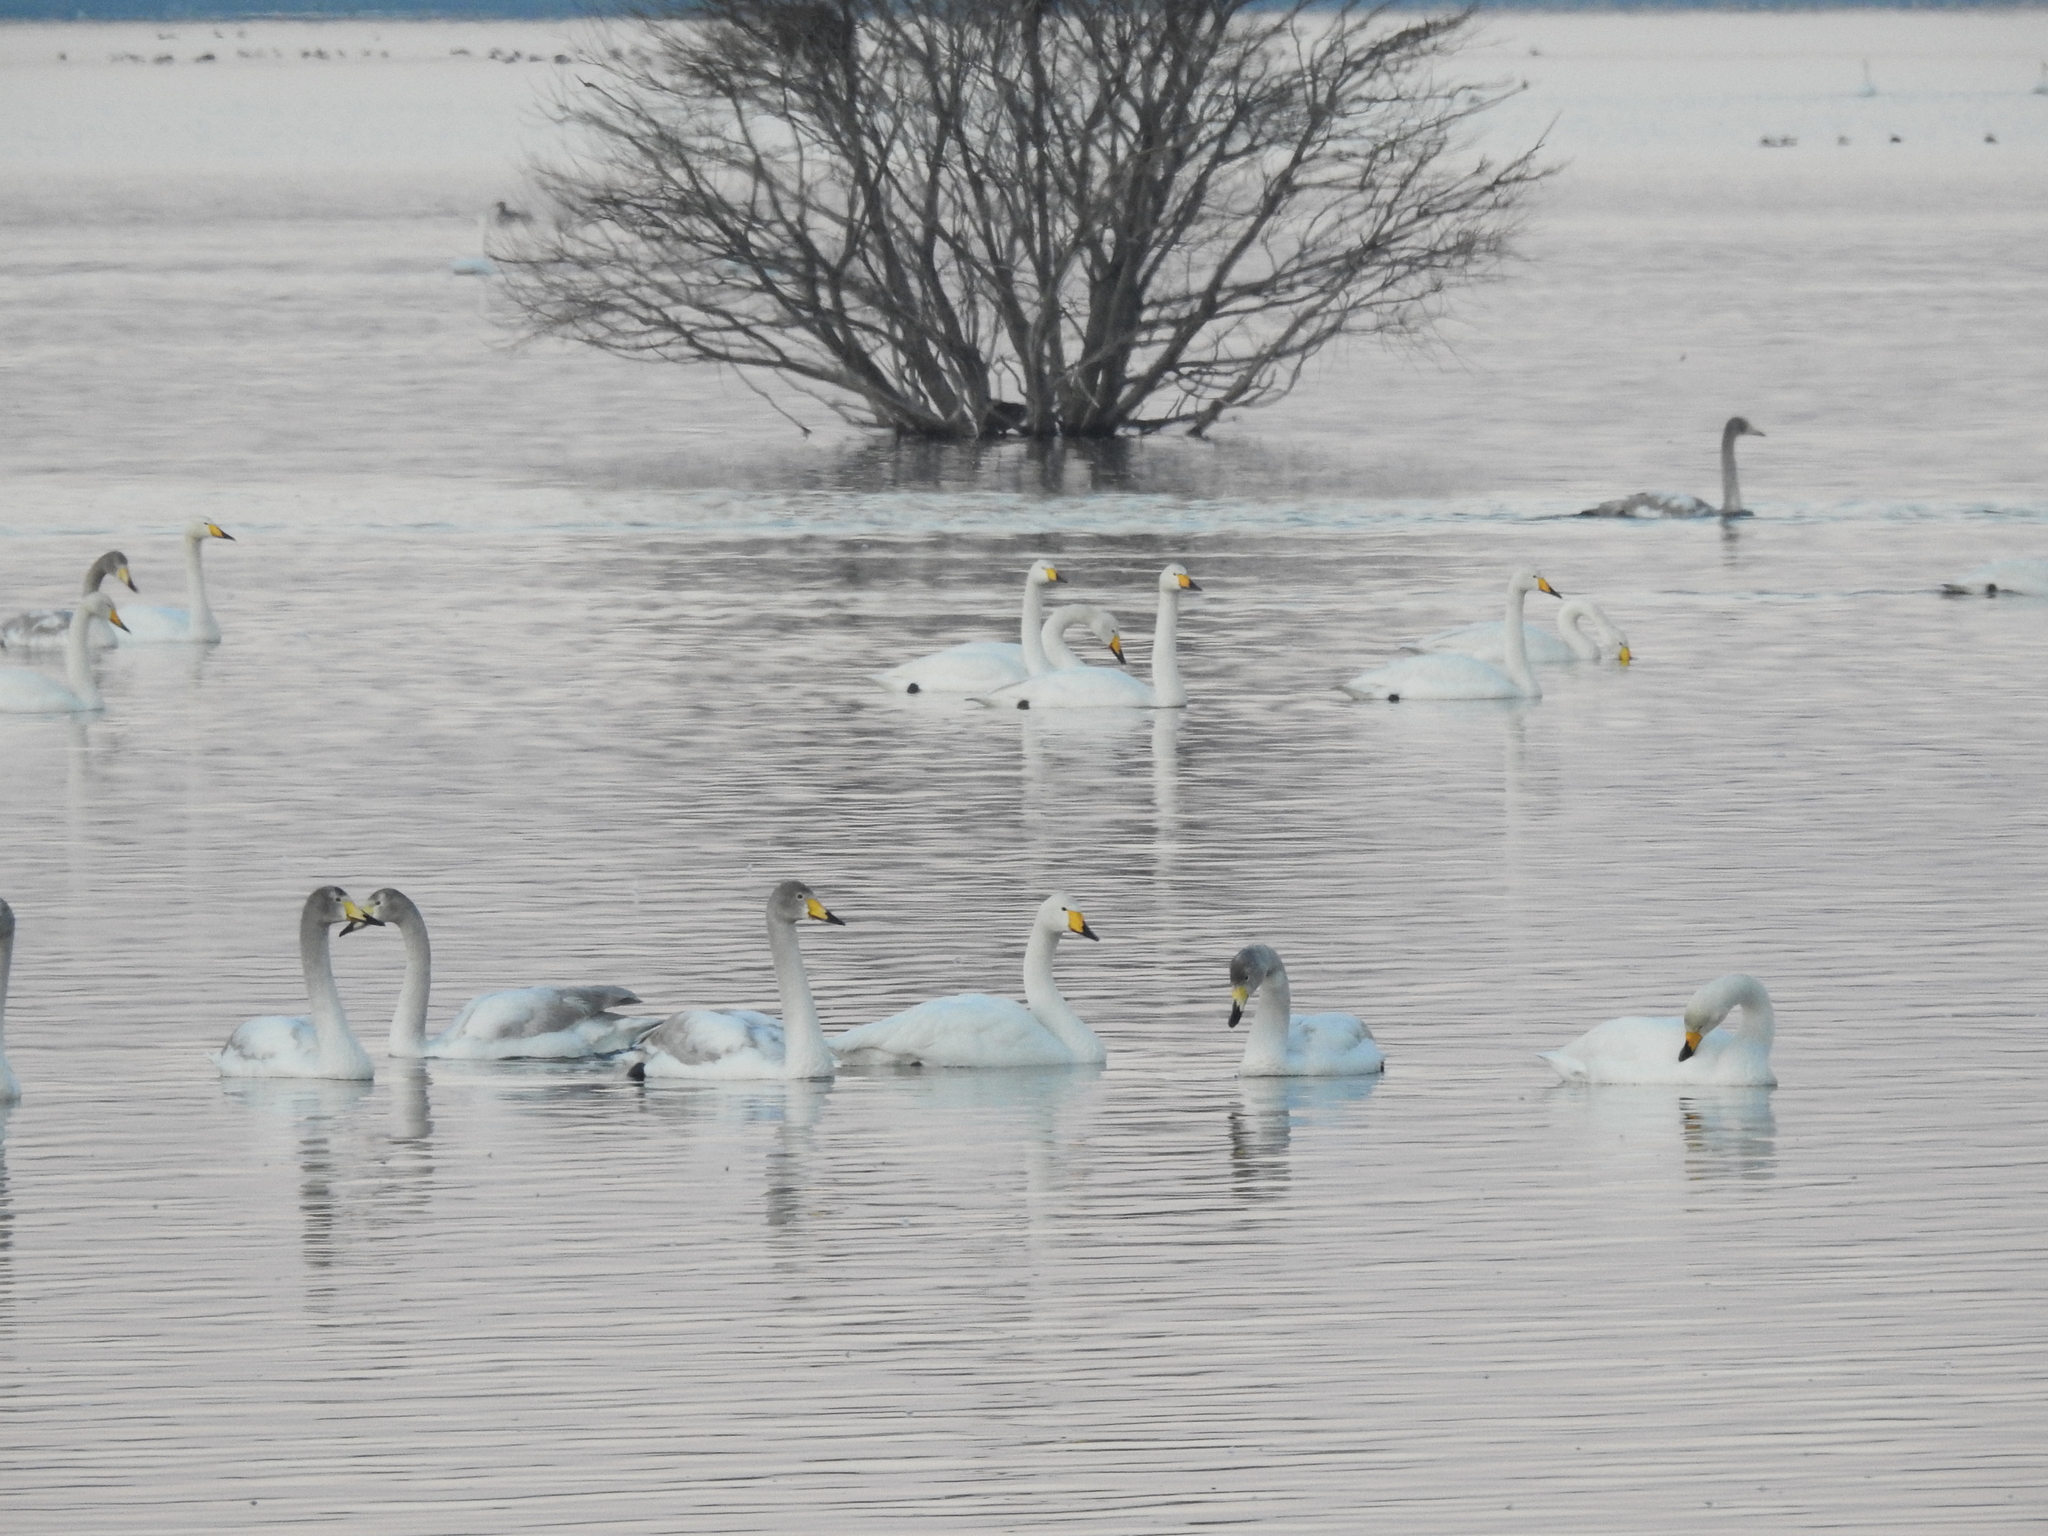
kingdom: Animalia
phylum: Chordata
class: Aves
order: Anseriformes
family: Anatidae
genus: Cygnus
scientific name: Cygnus cygnus
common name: Whooper swan
